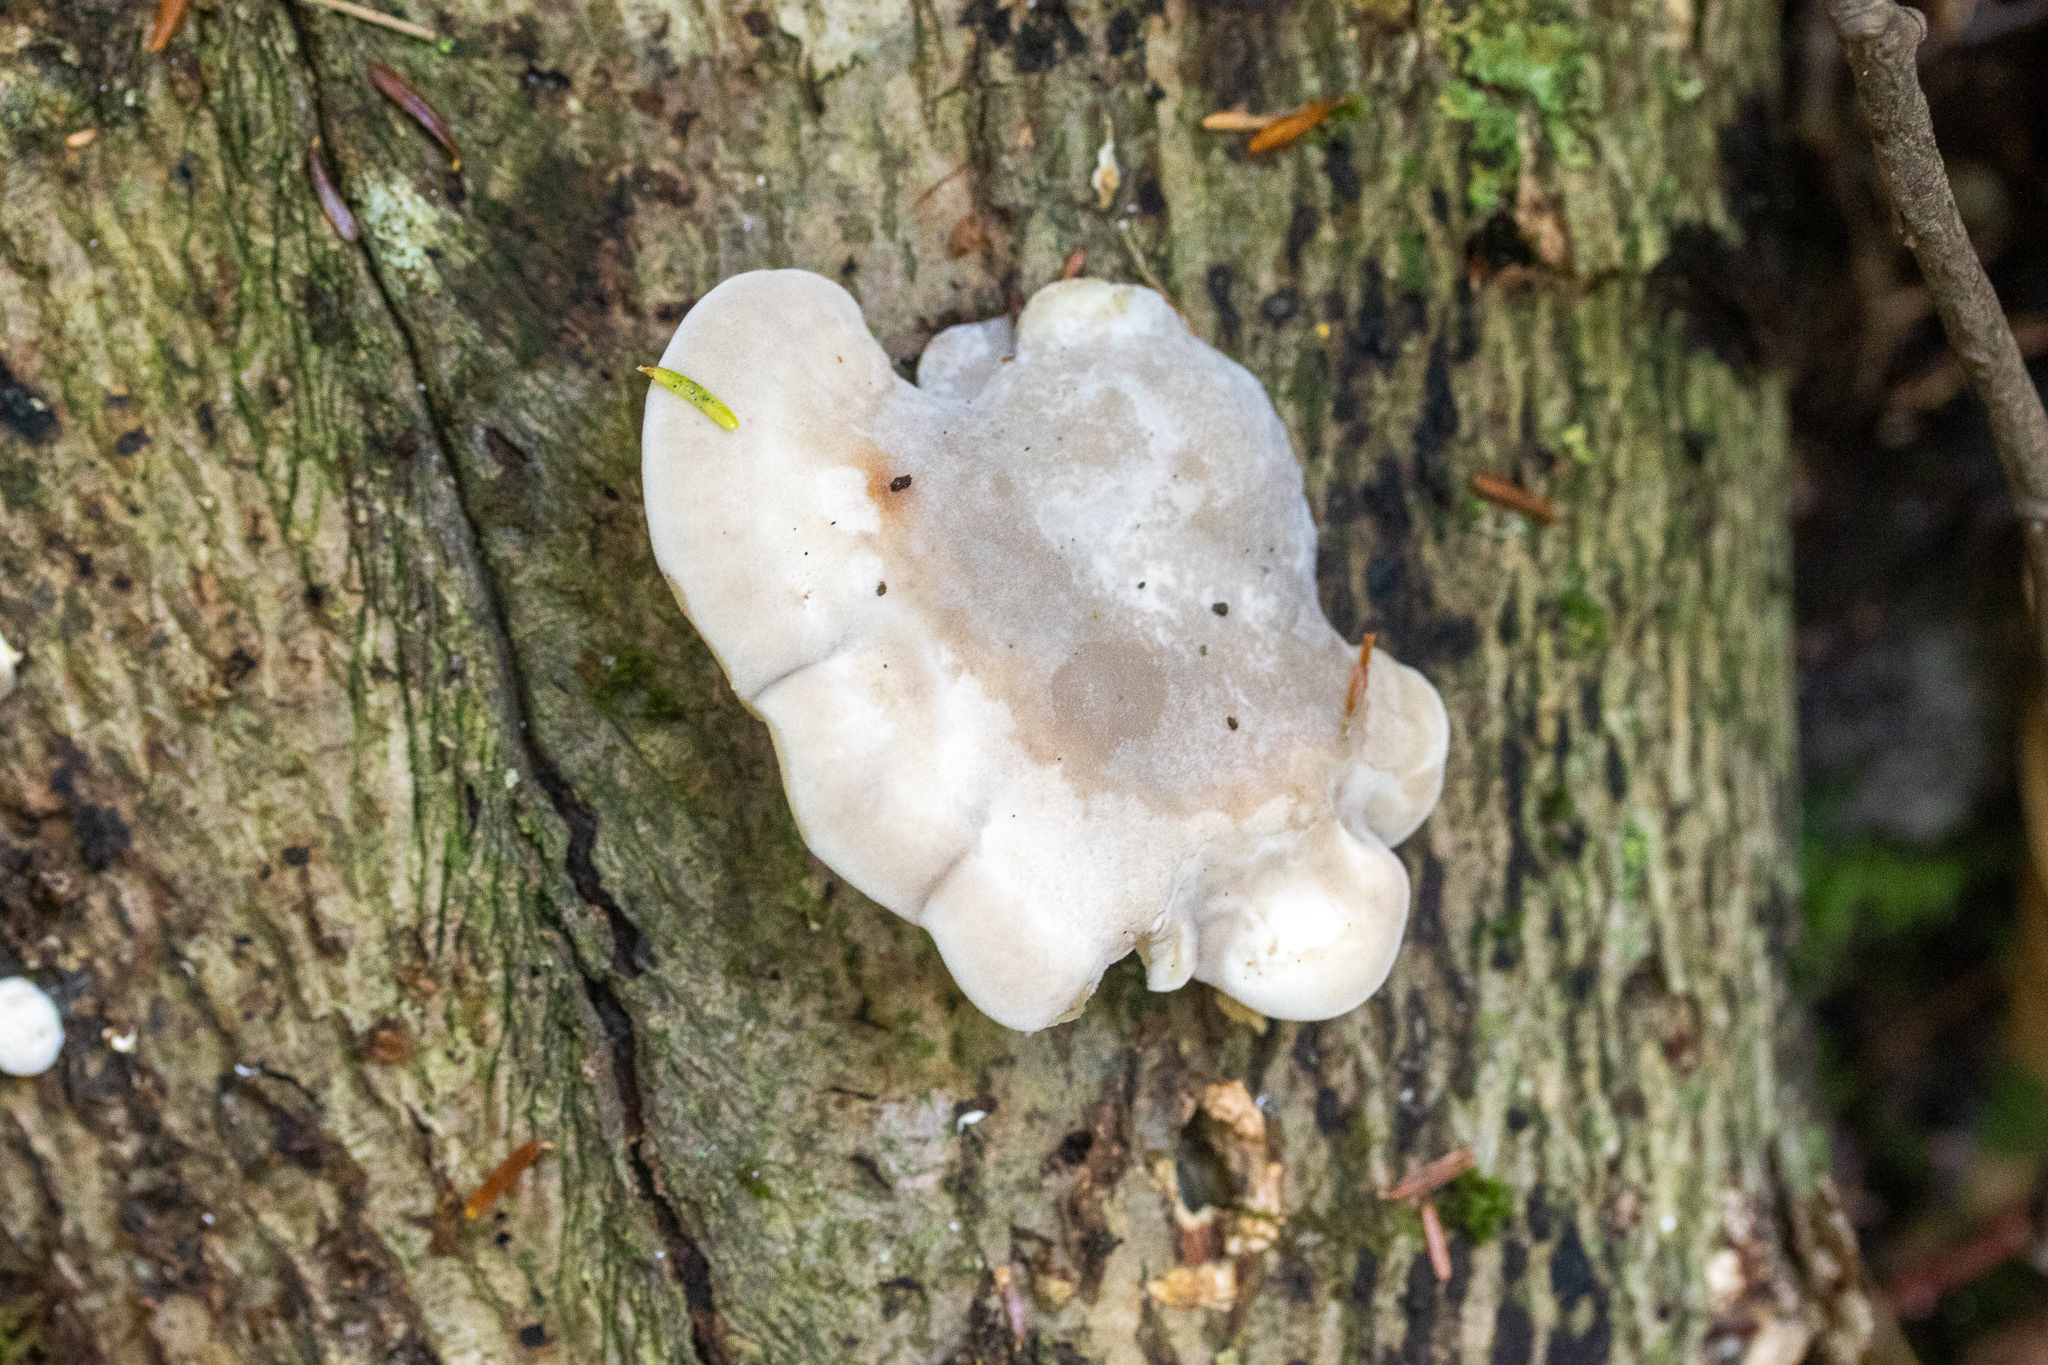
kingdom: Fungi
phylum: Basidiomycota
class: Agaricomycetes
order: Polyporales
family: Incrustoporiaceae
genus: Tyromyces
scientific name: Tyromyces chioneus
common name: White cheese polypore
